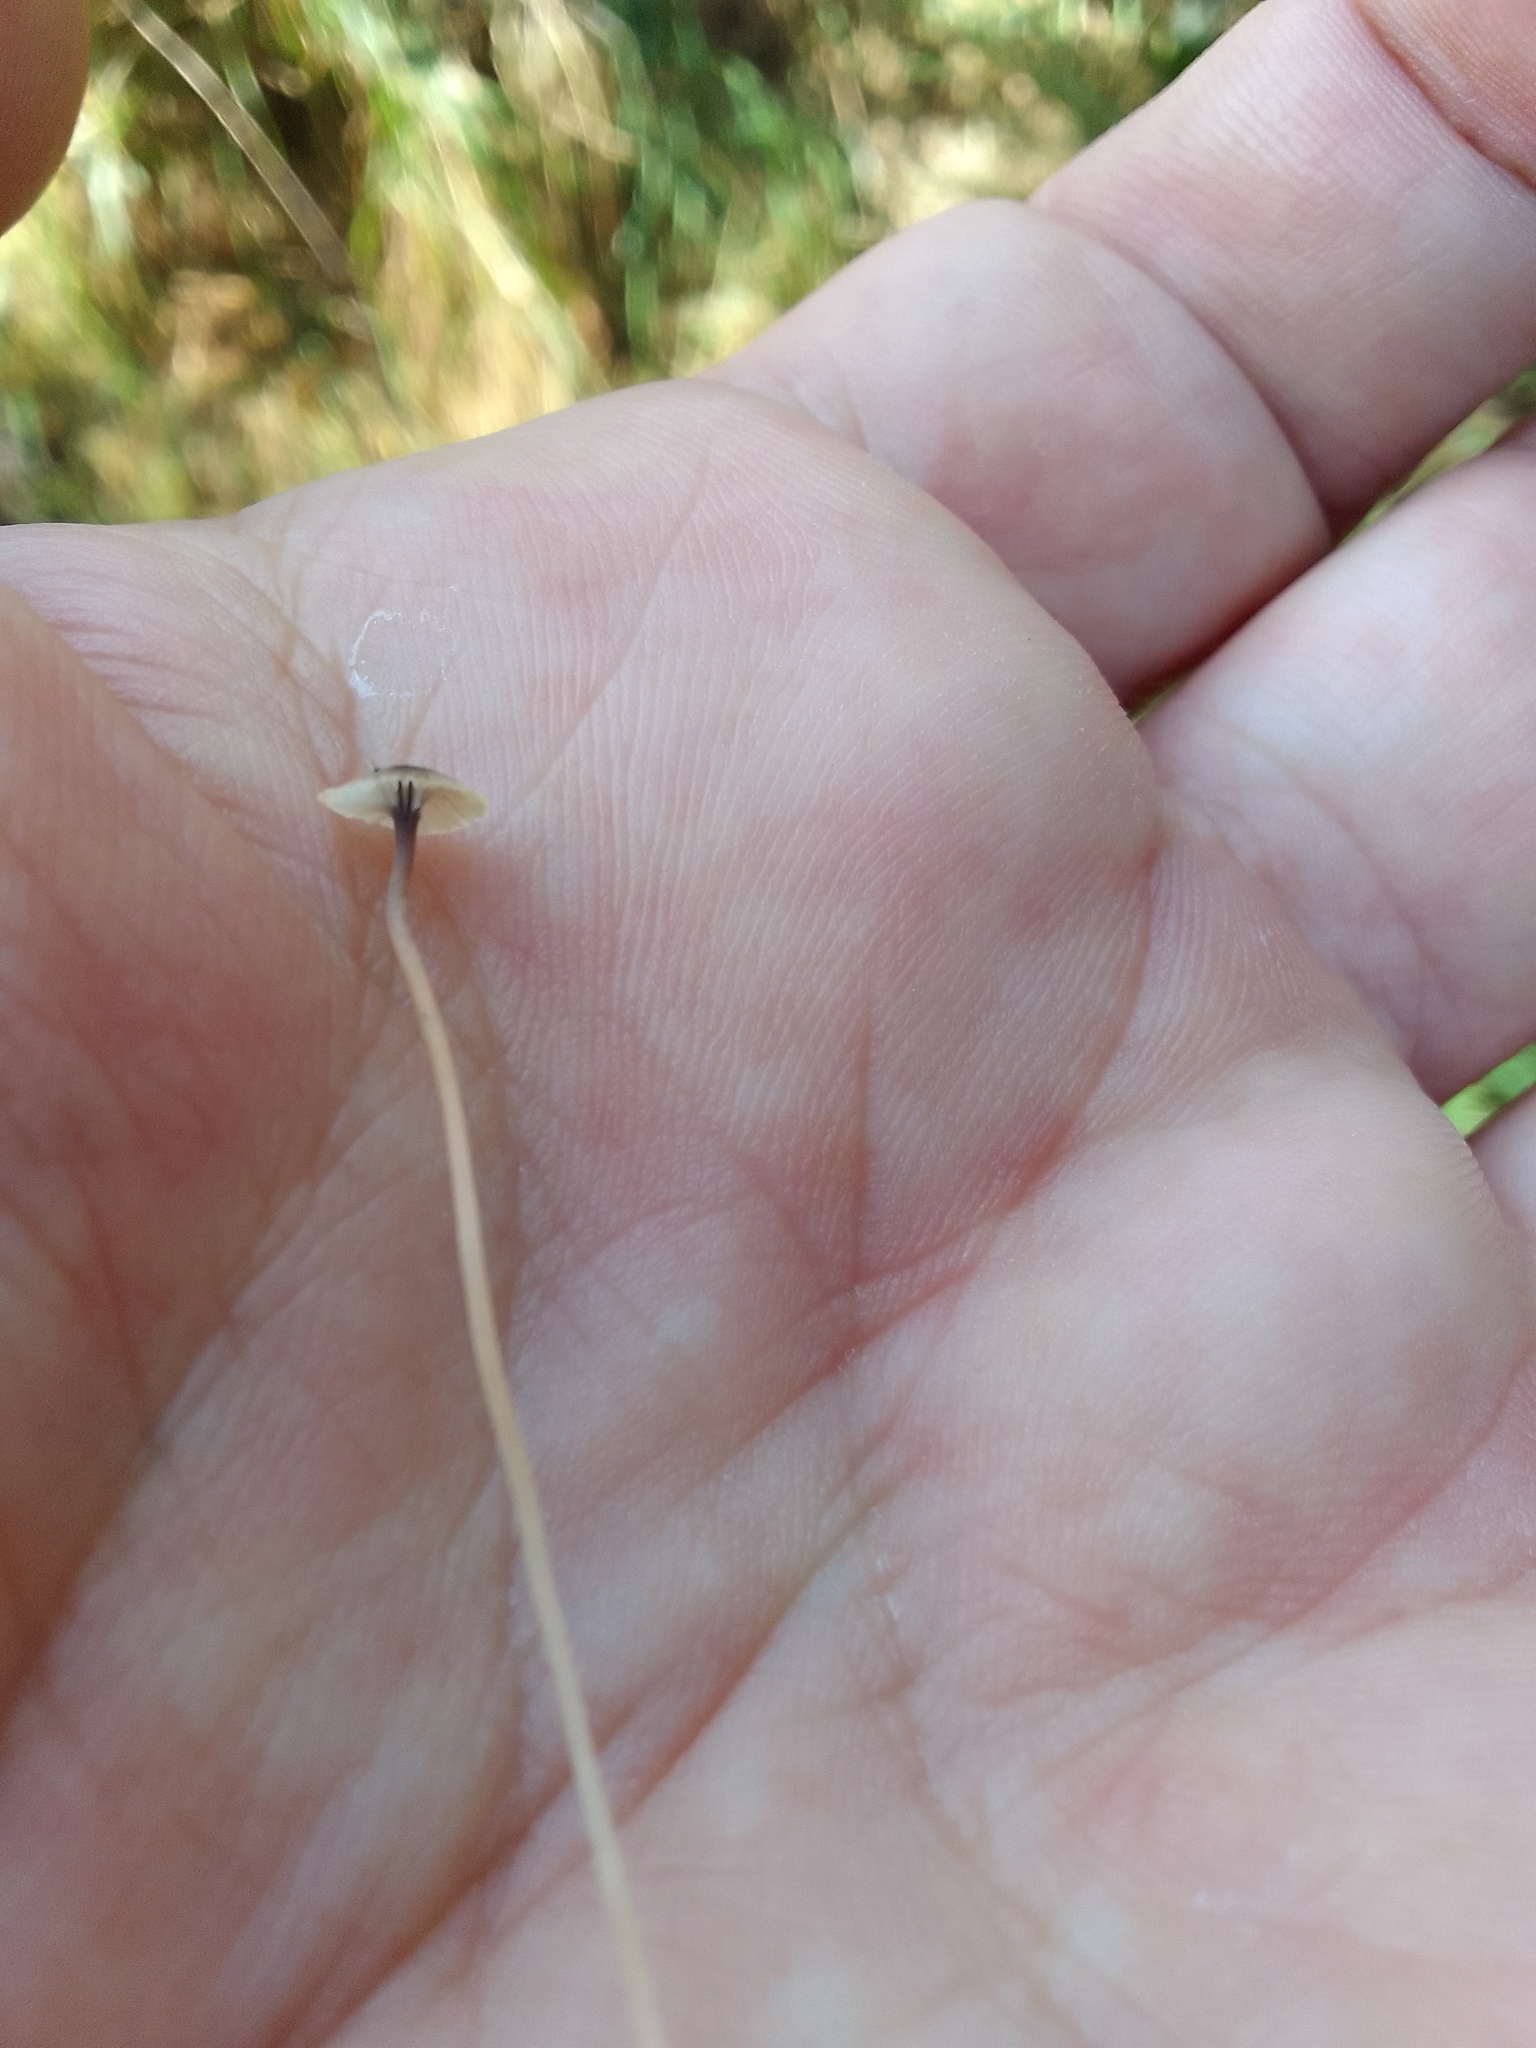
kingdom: Fungi
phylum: Basidiomycota
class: Agaricomycetes
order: Hymenochaetales
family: Rickenellaceae
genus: Rickenella
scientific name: Rickenella swartzii
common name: Collared mosscap
